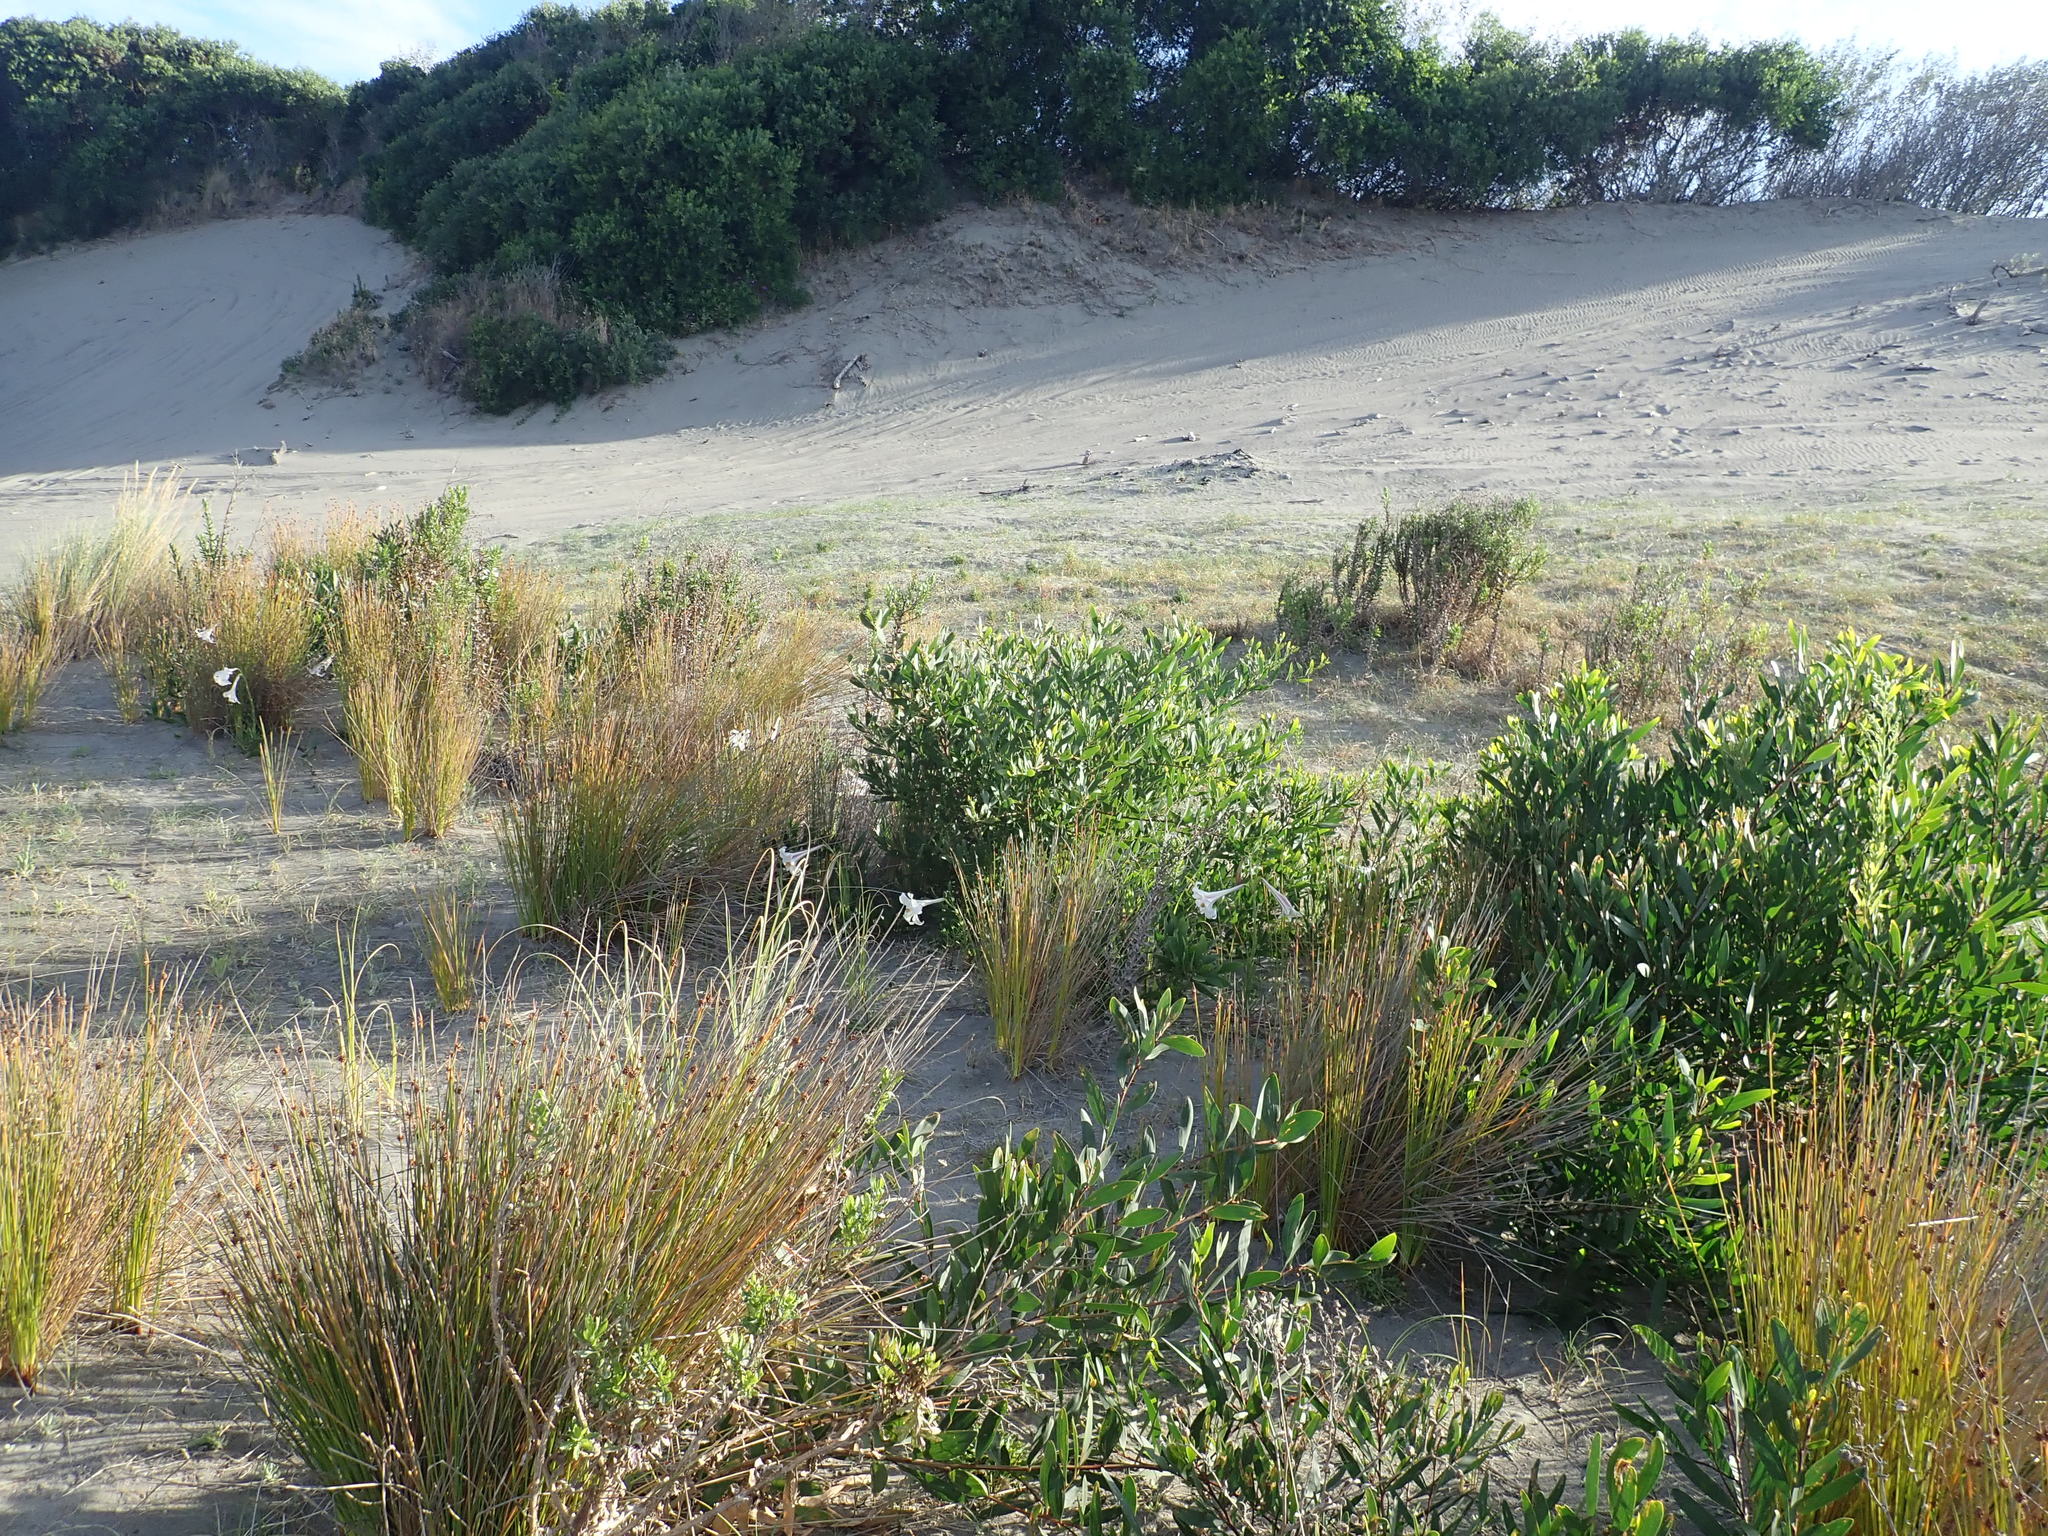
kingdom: Plantae
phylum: Tracheophyta
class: Liliopsida
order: Liliales
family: Liliaceae
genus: Lilium
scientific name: Lilium formosanum
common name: Formosa lily
